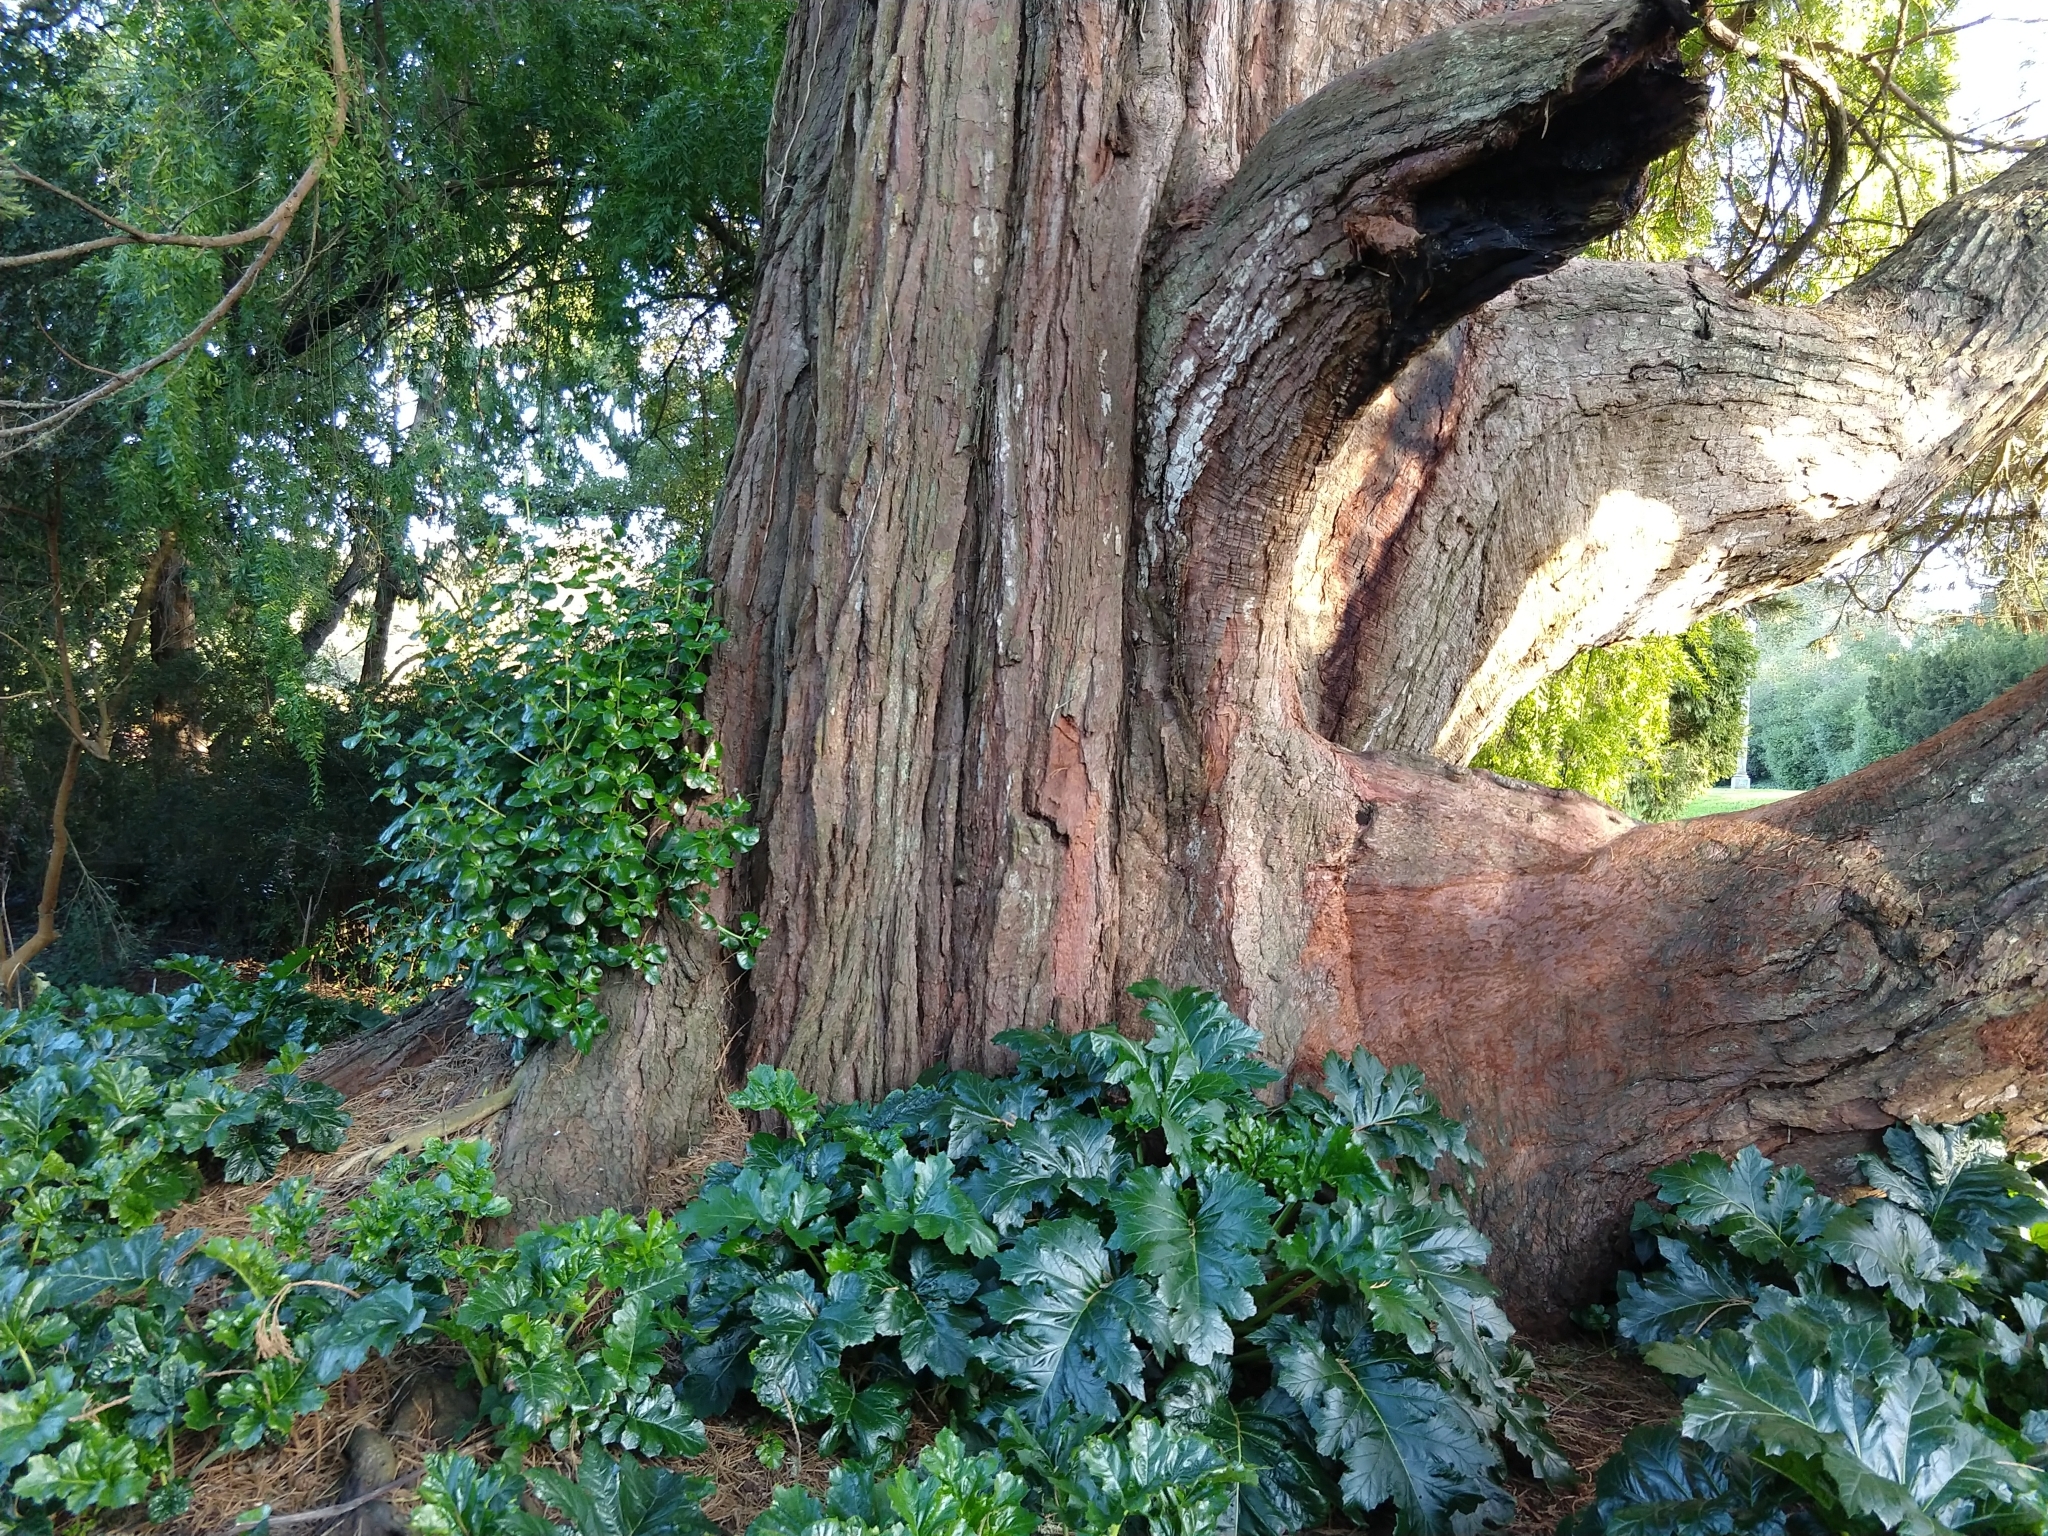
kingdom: Plantae
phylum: Tracheophyta
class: Magnoliopsida
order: Gentianales
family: Rubiaceae
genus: Coprosma
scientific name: Coprosma repens
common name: Tree bedstraw
